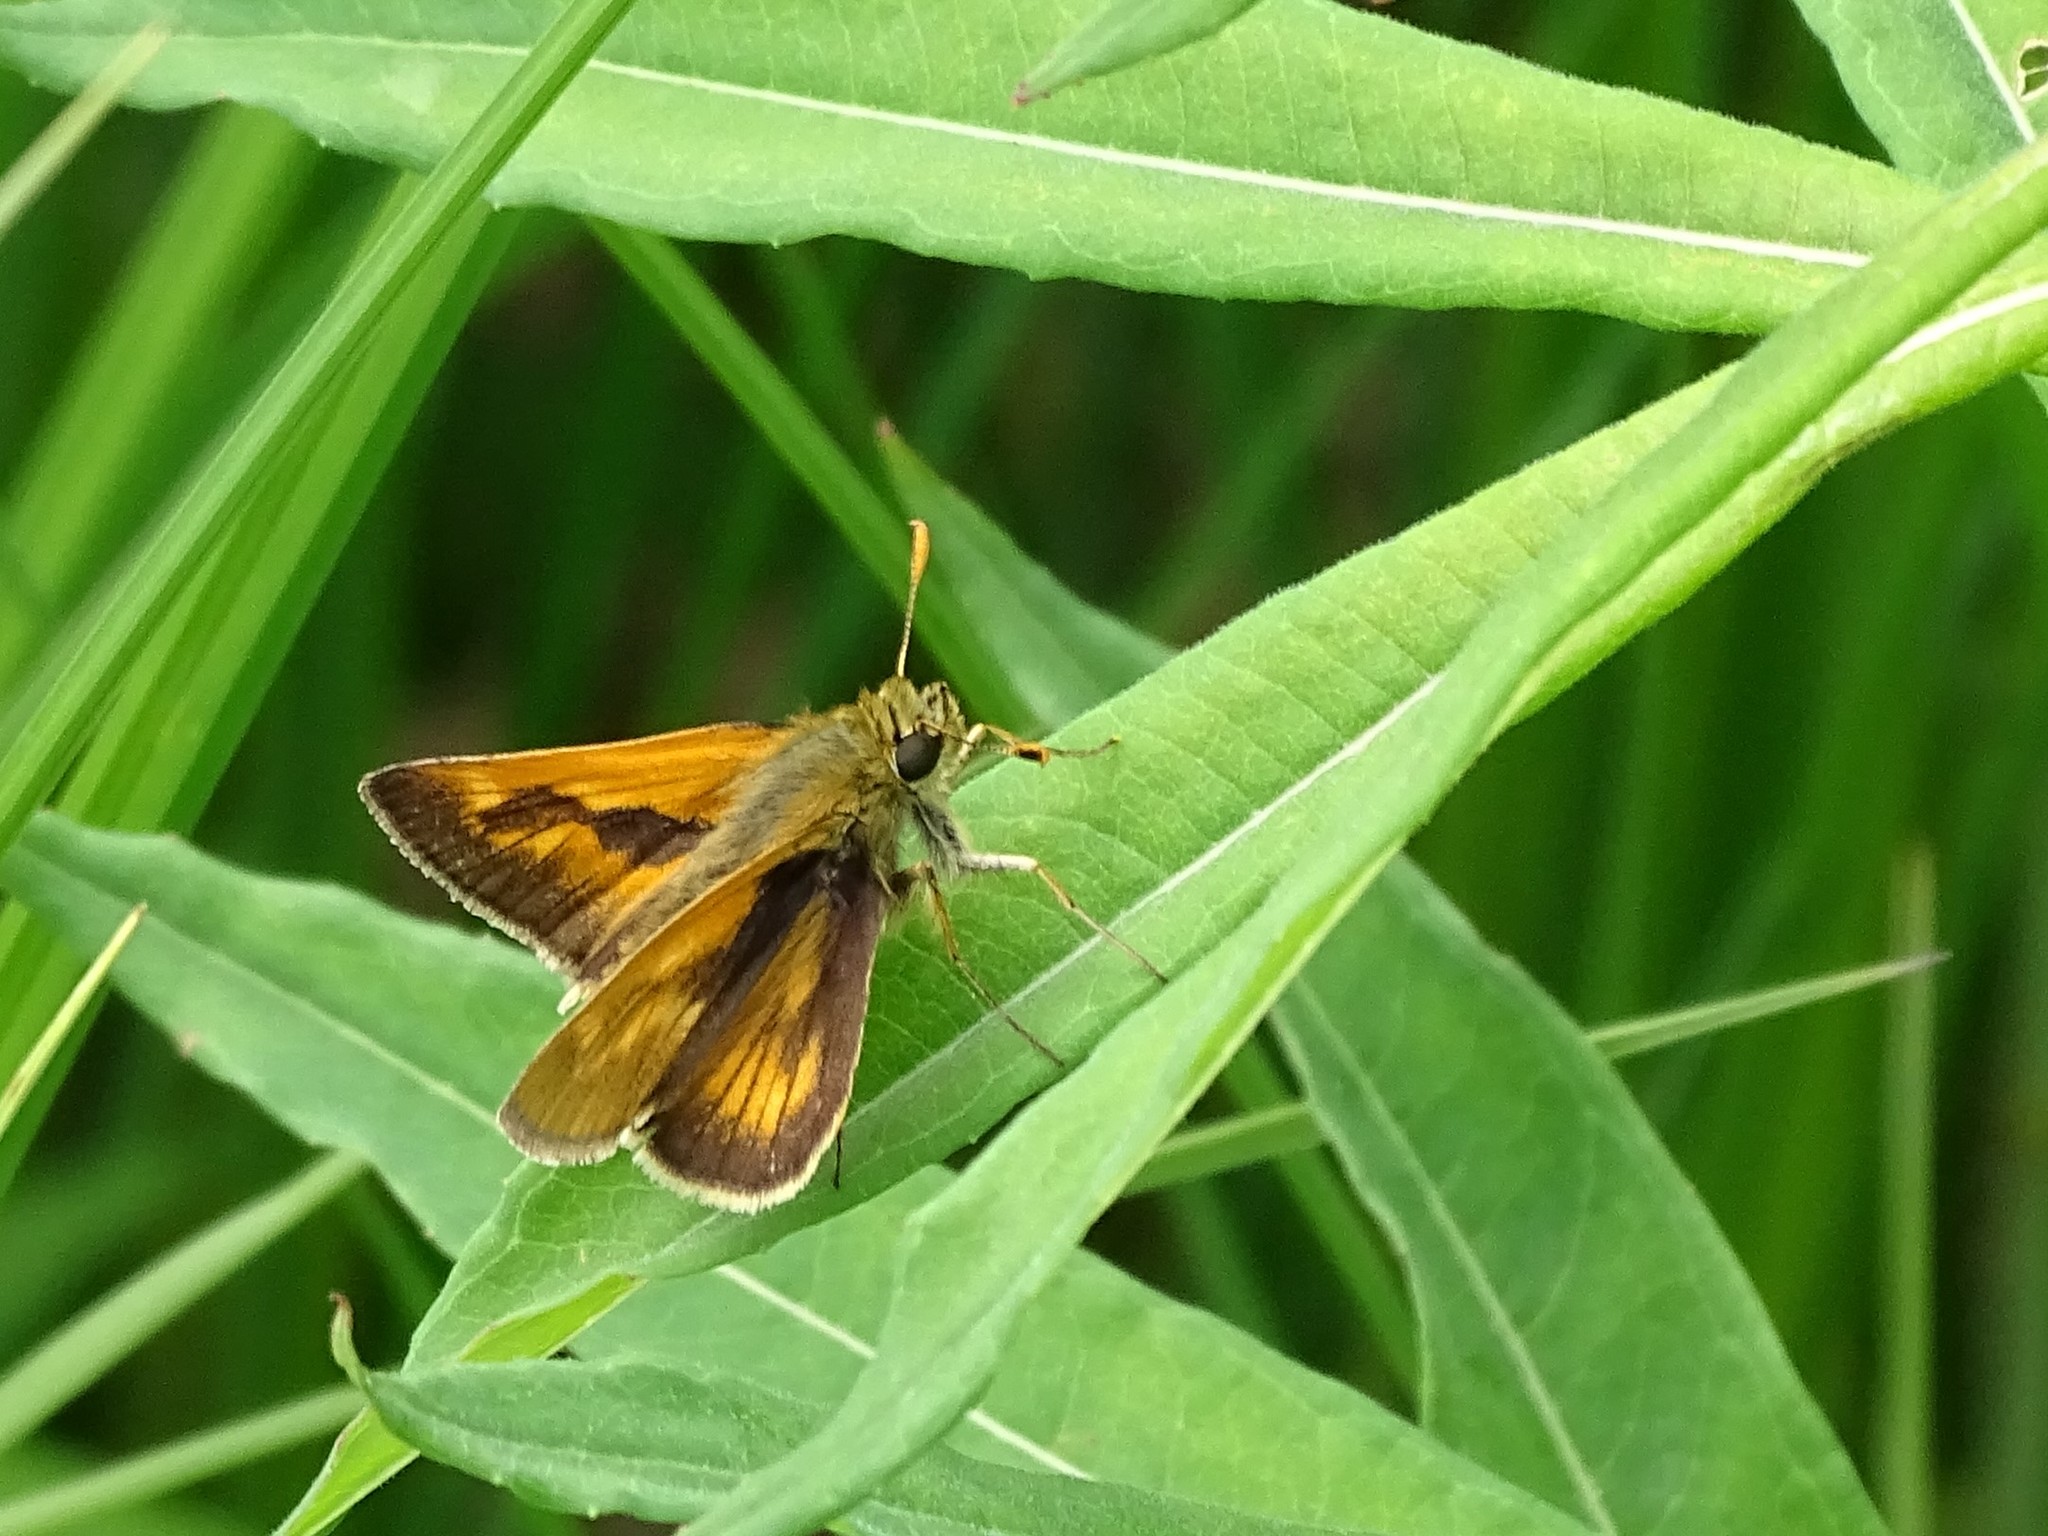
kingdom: Animalia
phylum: Arthropoda
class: Insecta
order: Lepidoptera
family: Hesperiidae
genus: Polites
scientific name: Polites mystic
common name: Long dash
